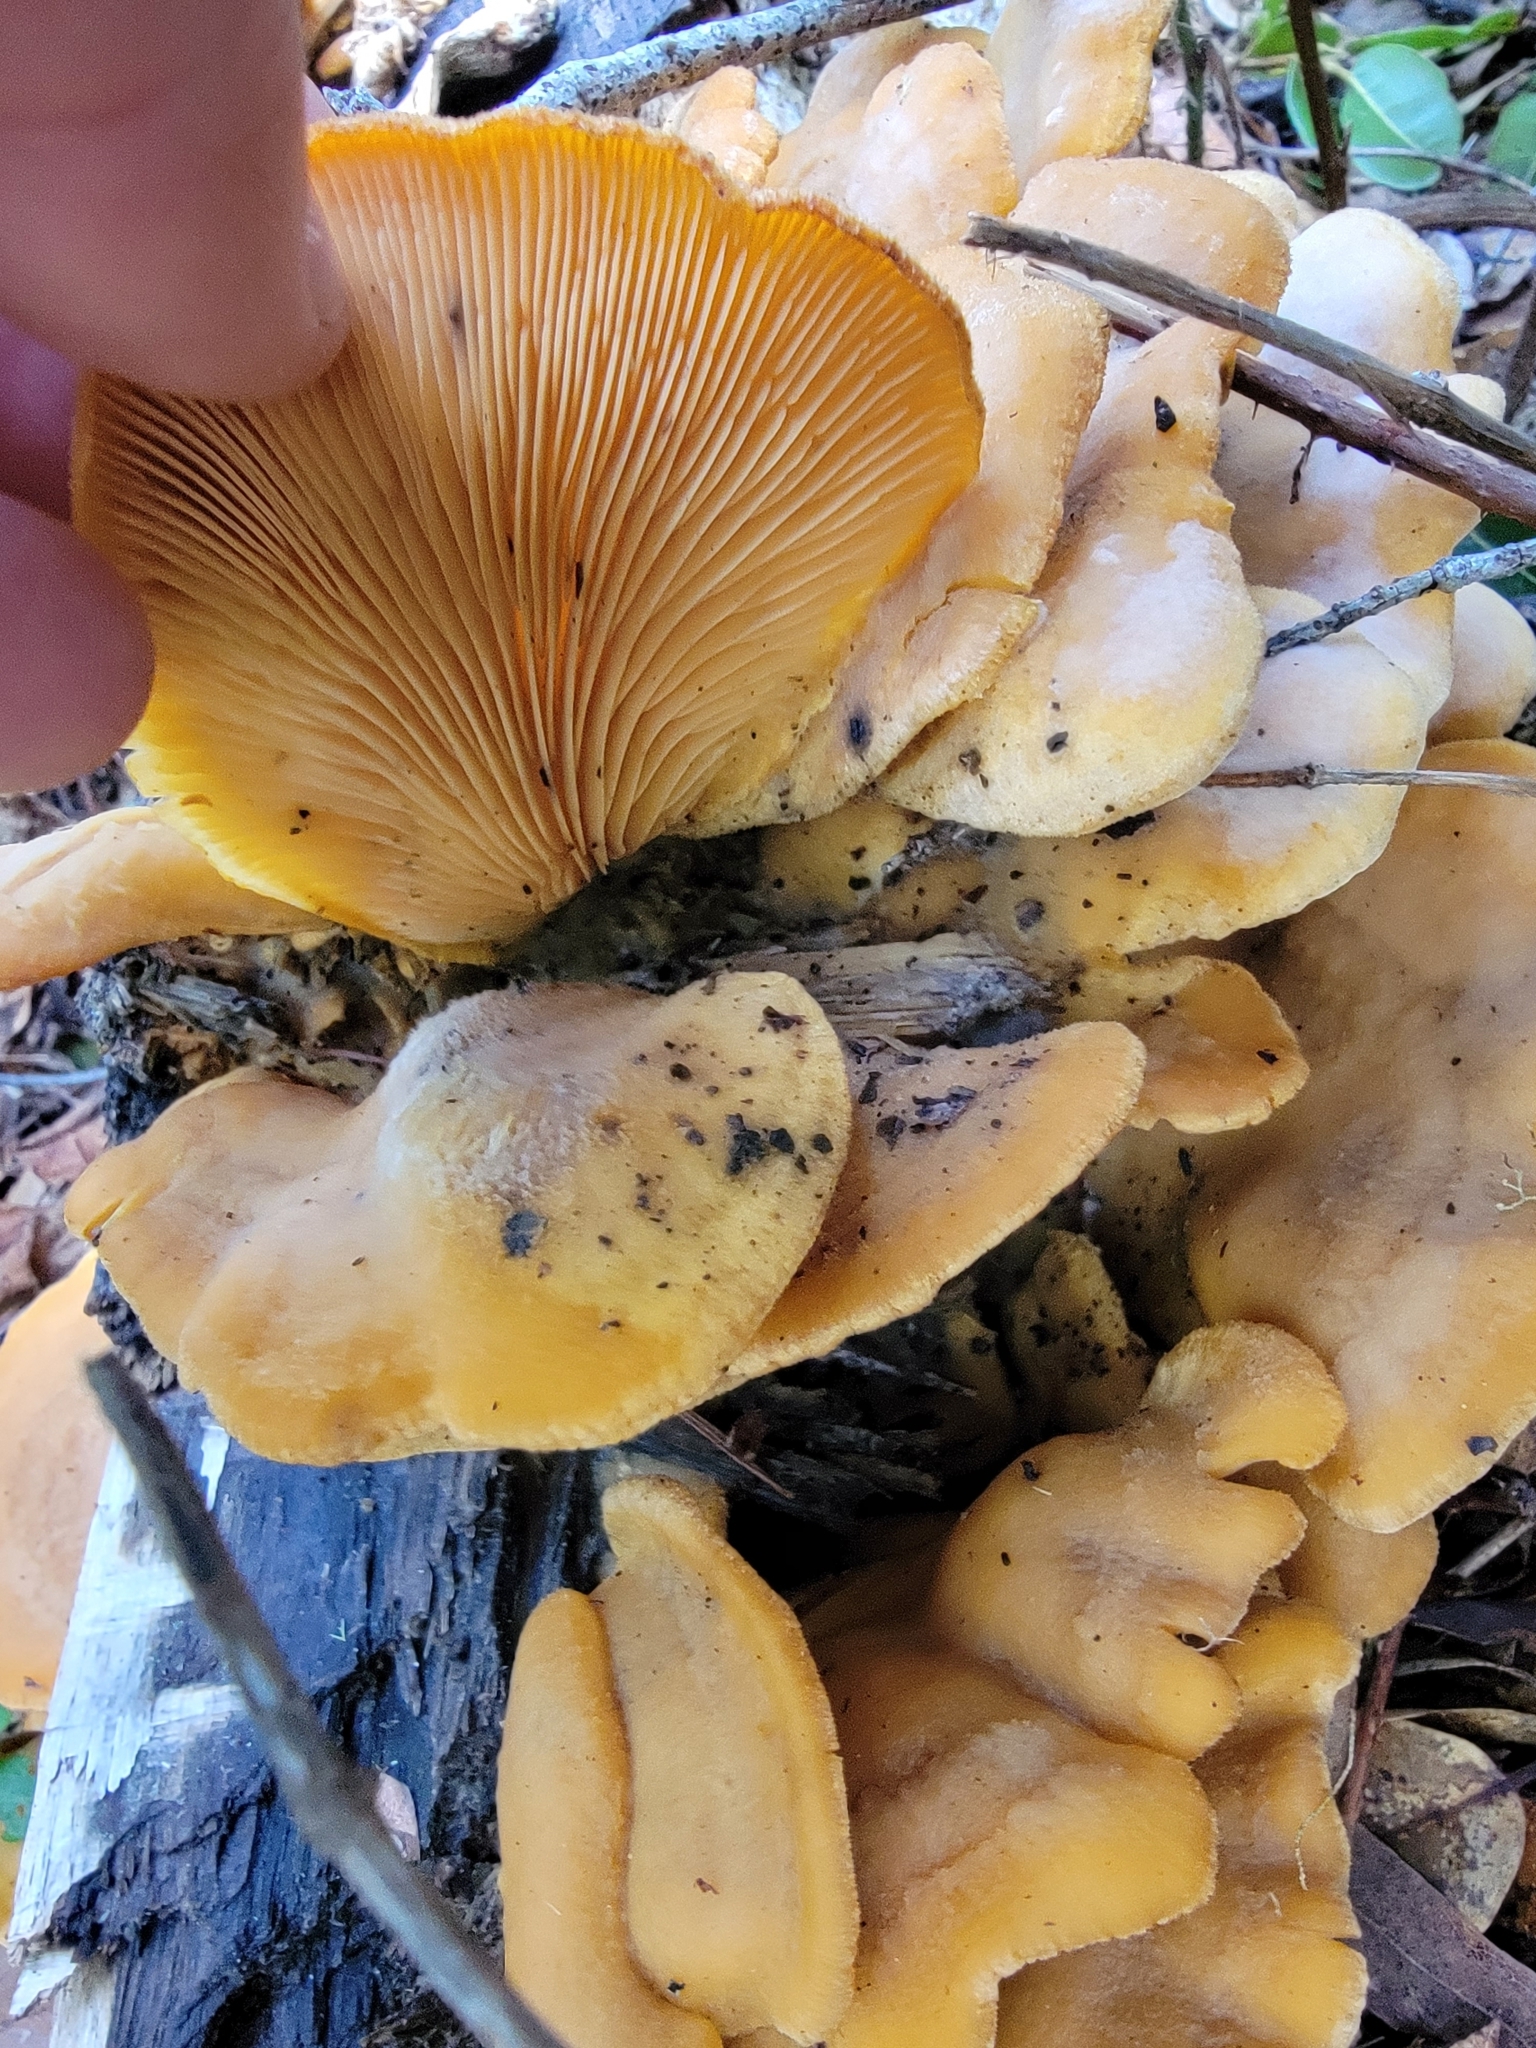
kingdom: Fungi
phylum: Basidiomycota
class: Agaricomycetes
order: Agaricales
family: Phyllotopsidaceae
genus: Phyllotopsis
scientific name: Phyllotopsis nidulans
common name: Orange mock oyster
